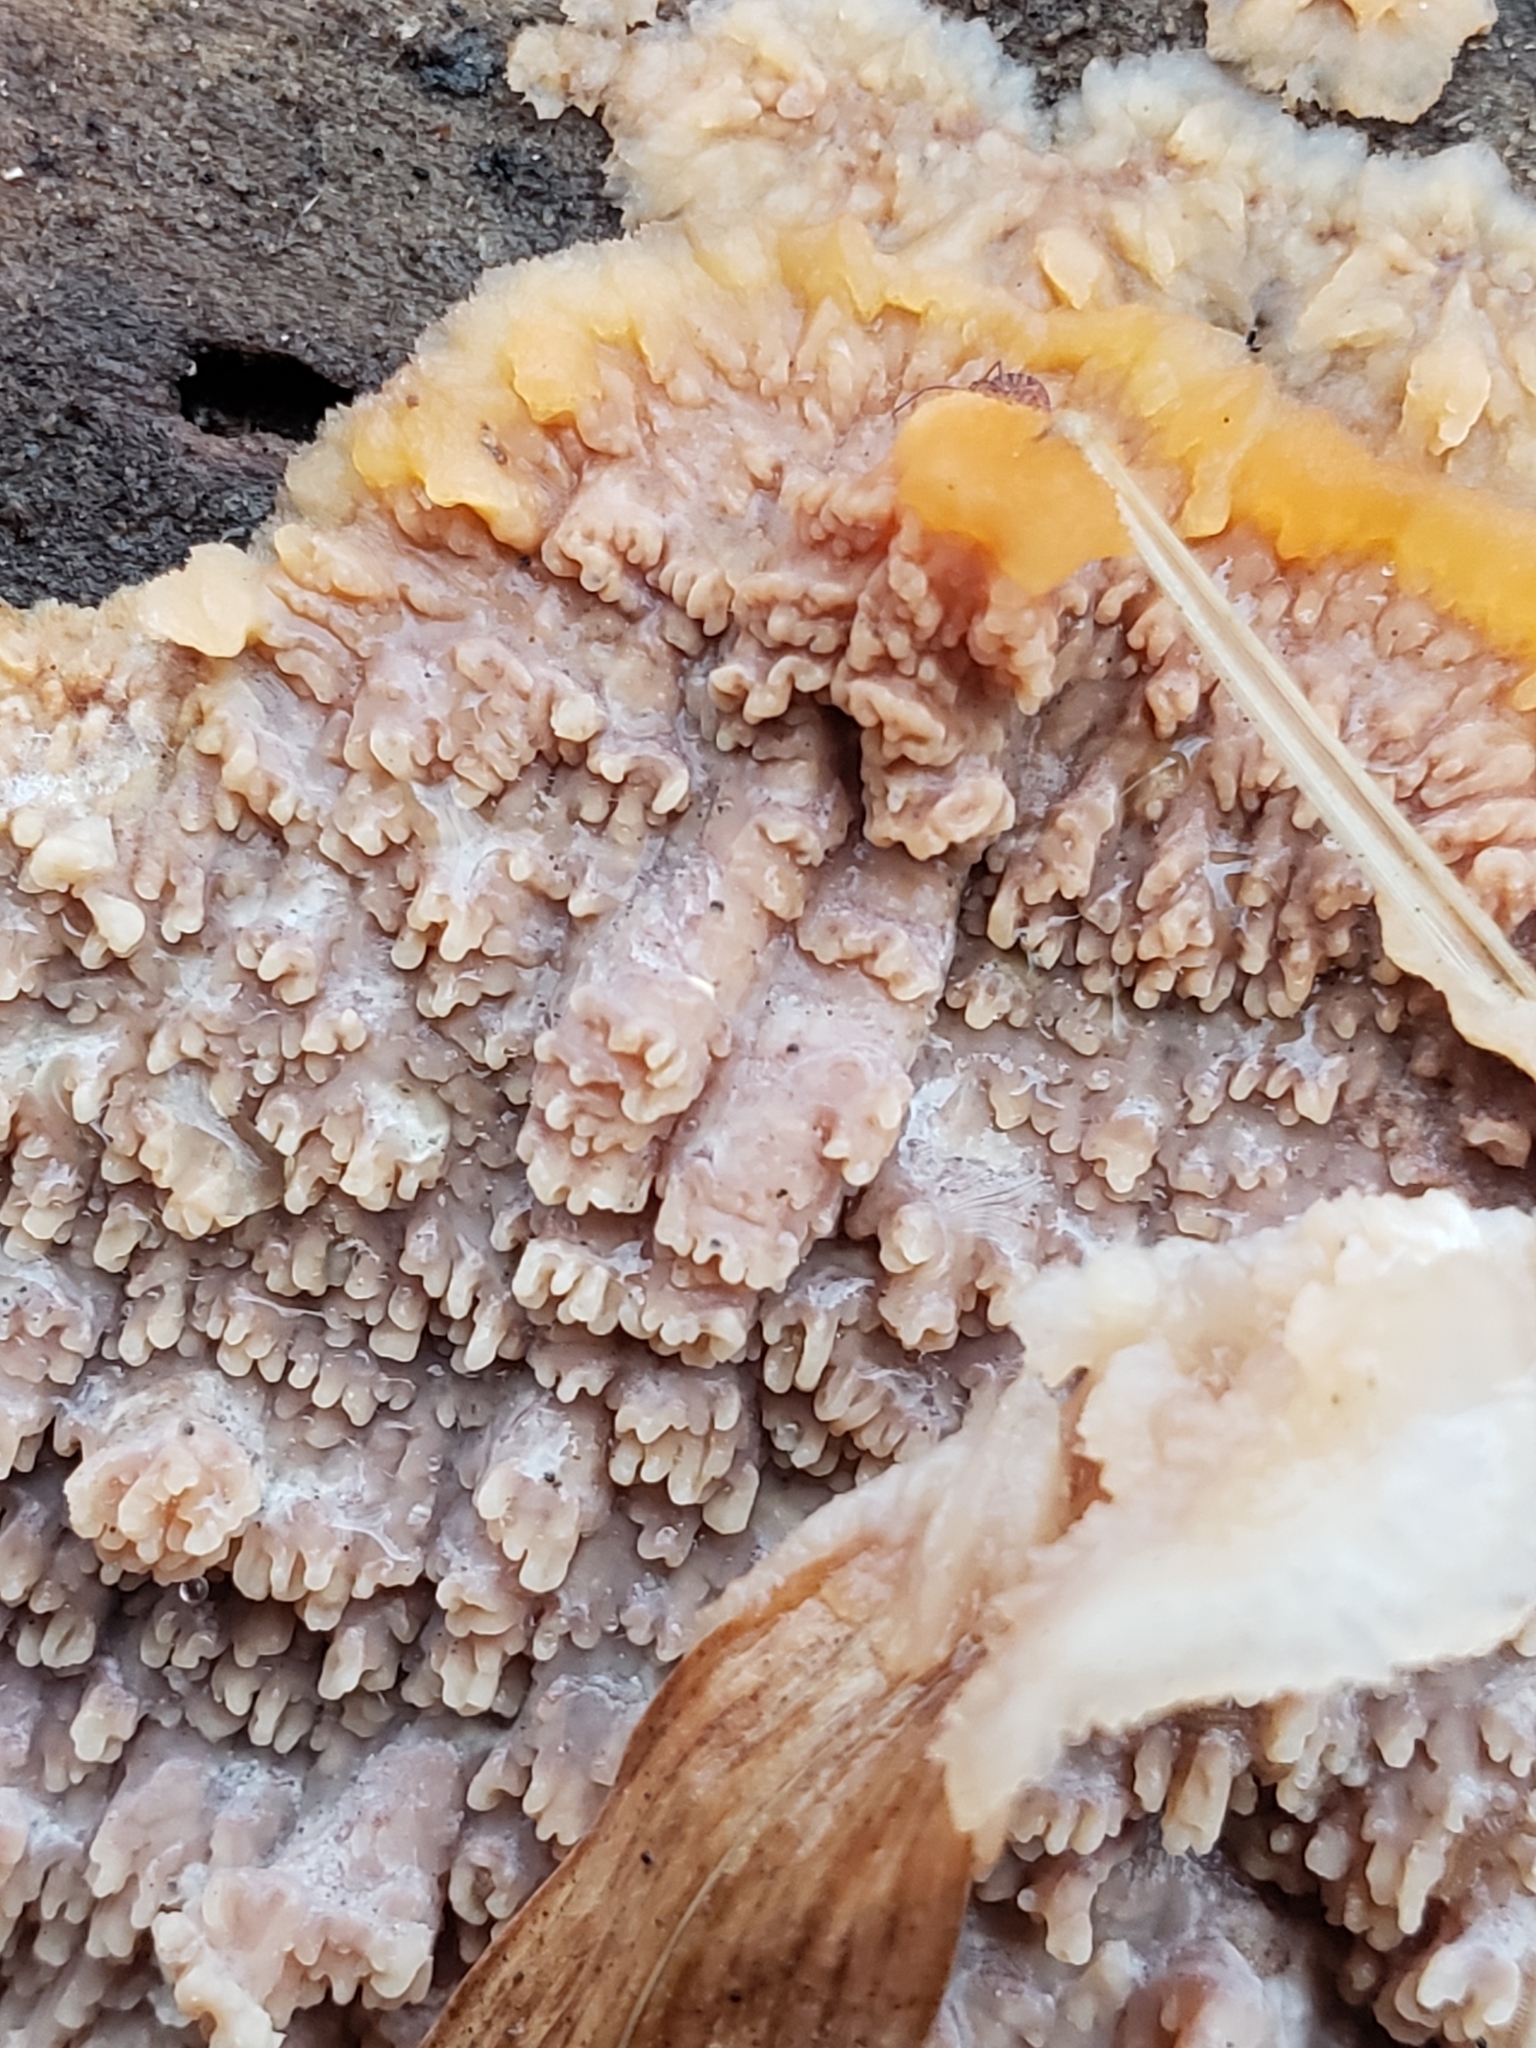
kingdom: Fungi
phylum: Basidiomycota
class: Agaricomycetes
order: Polyporales
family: Meruliaceae
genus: Phlebia
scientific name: Phlebia radiata
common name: Wrinkled crust
